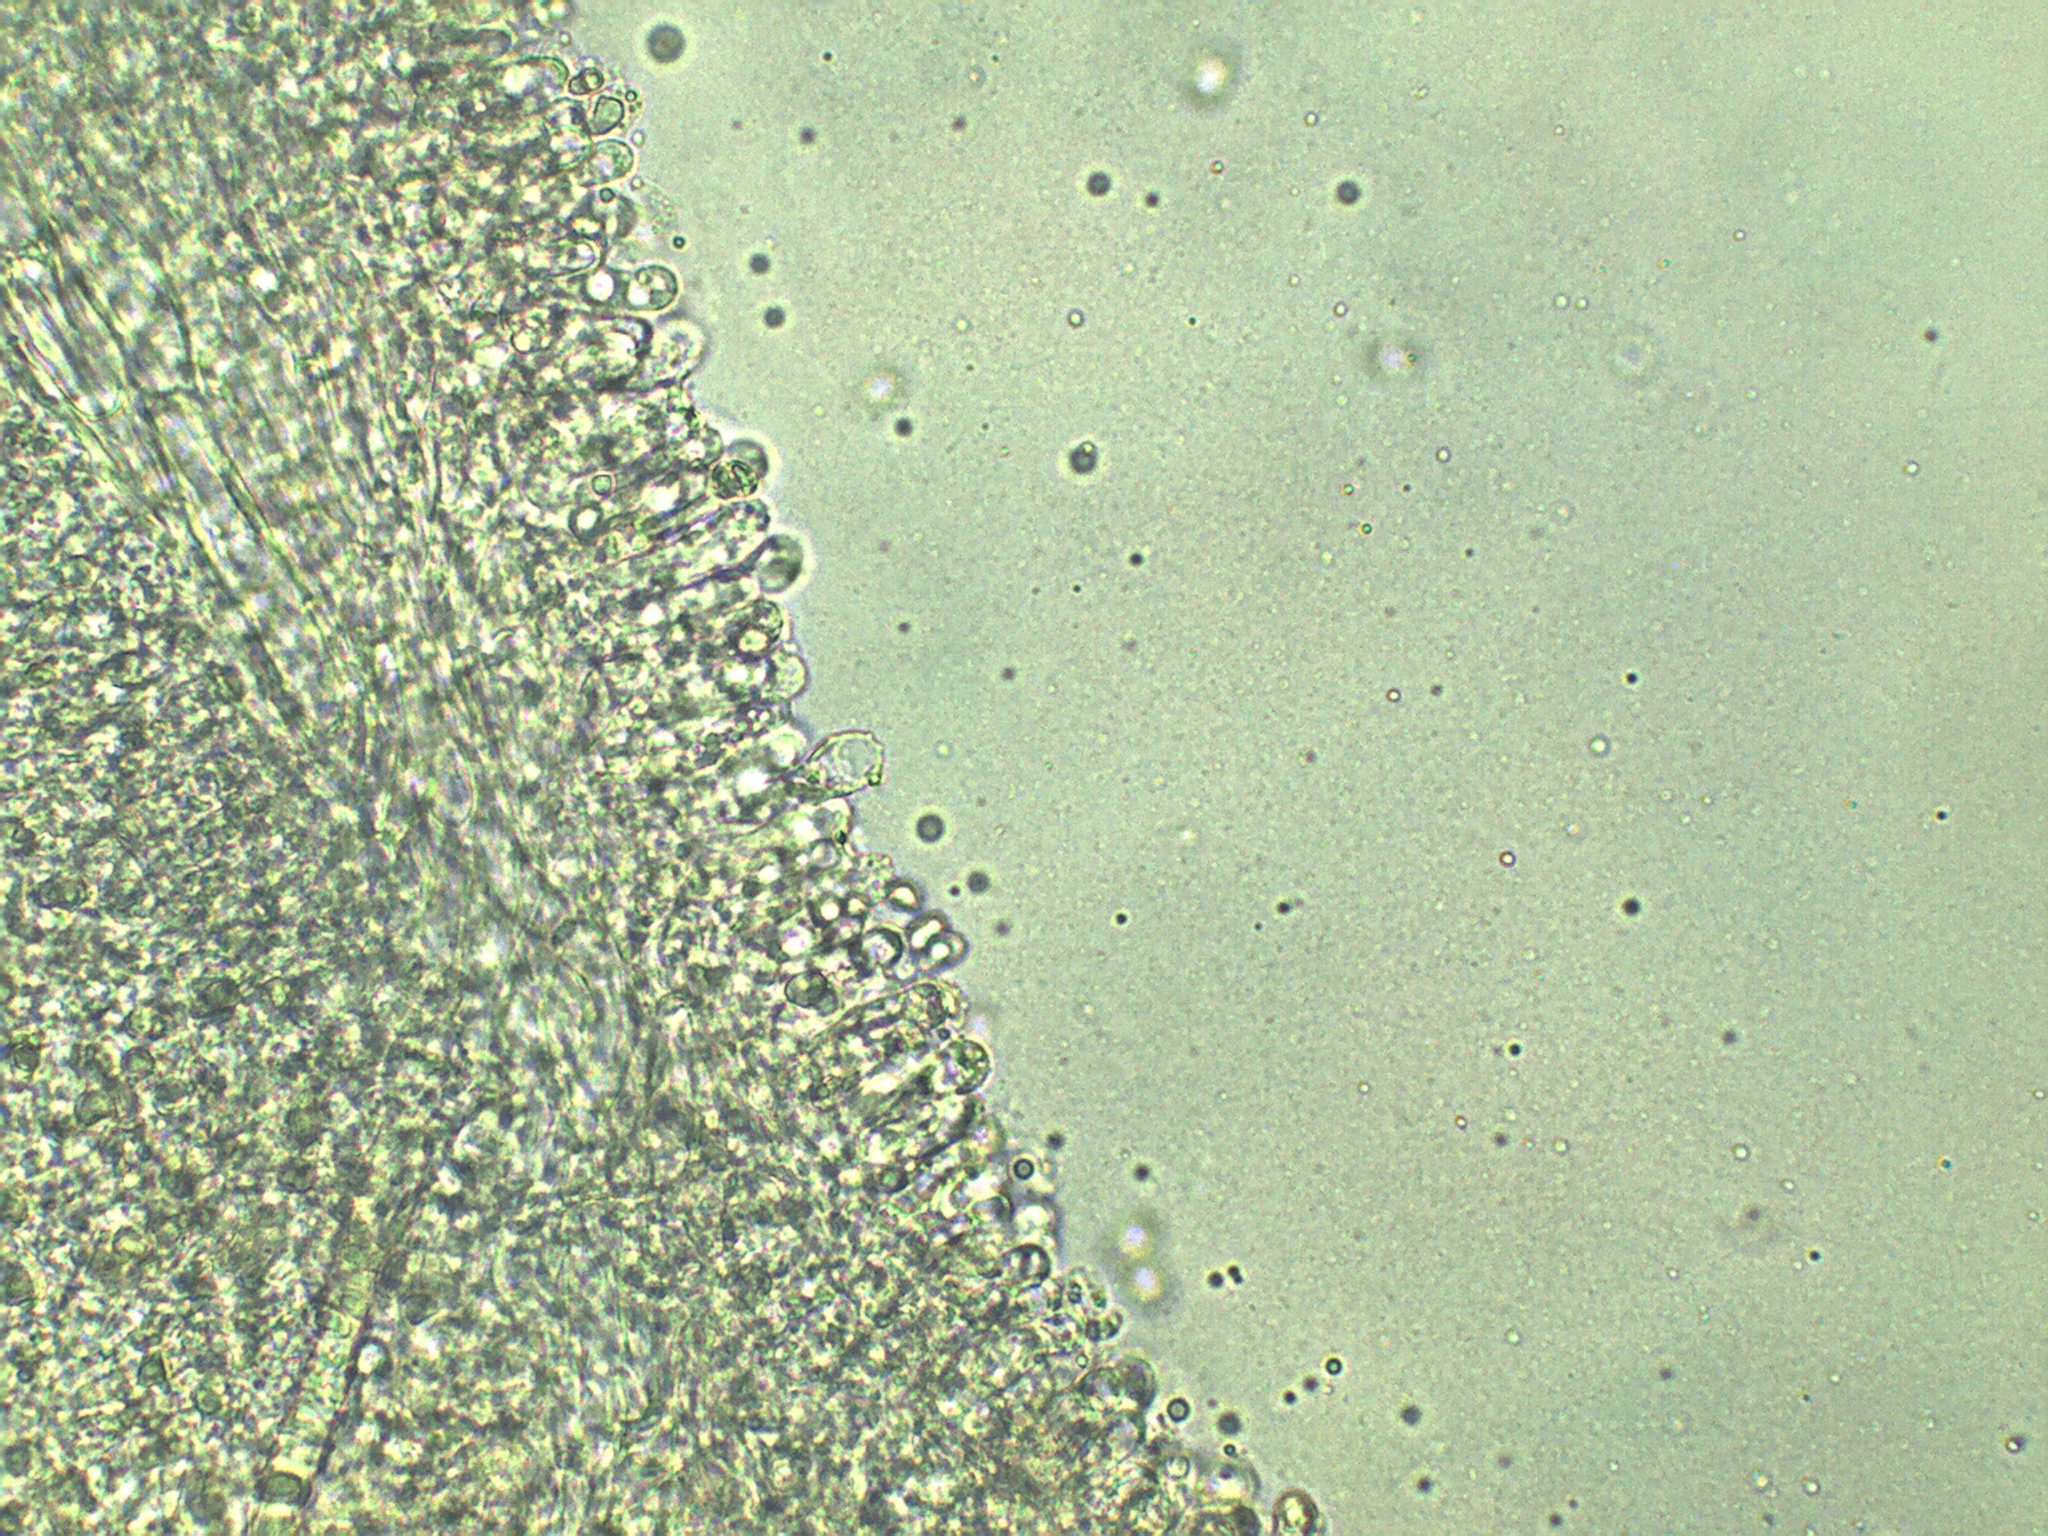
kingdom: Fungi
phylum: Basidiomycota
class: Agaricomycetes
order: Agaricales
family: Tricholomataceae
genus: Melanoleuca
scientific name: Melanoleuca graminicola
